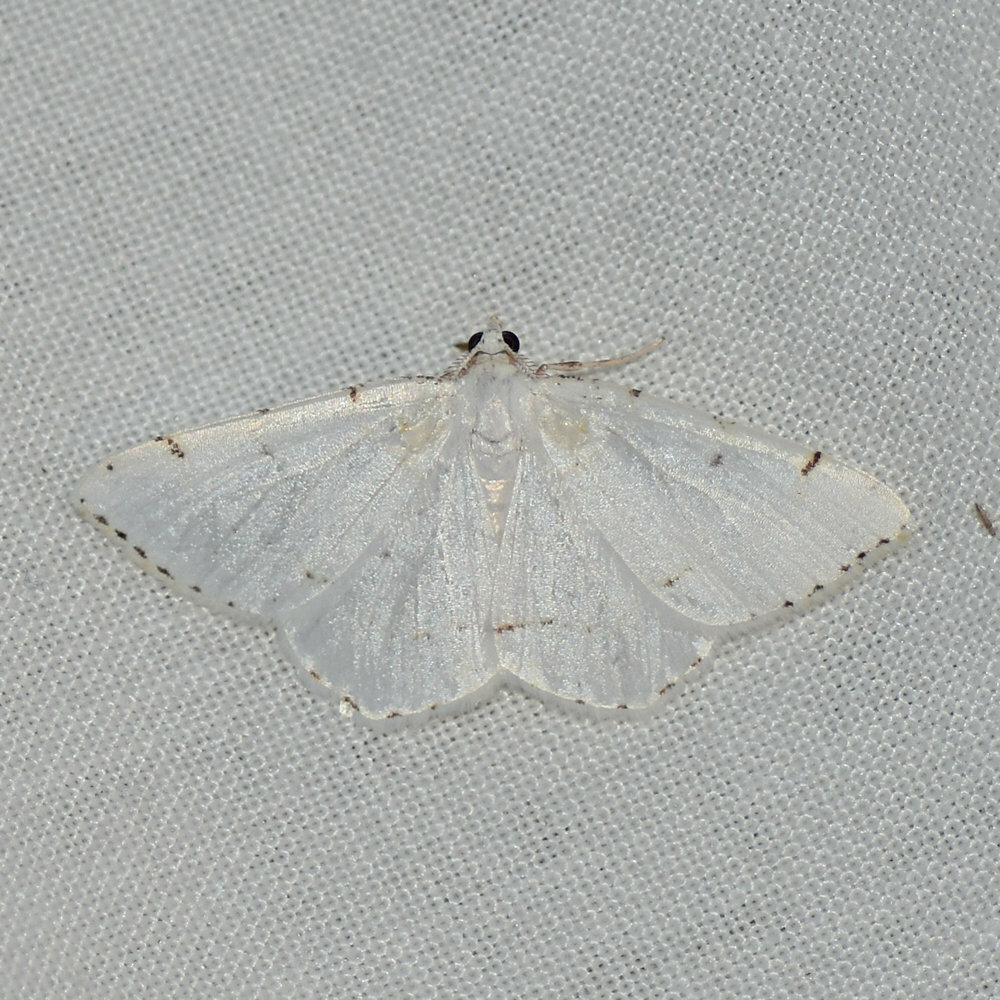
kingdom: Animalia
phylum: Arthropoda
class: Insecta
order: Lepidoptera
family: Geometridae
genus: Macaria
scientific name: Macaria pustularia
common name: Lesser maple spanworm moth
